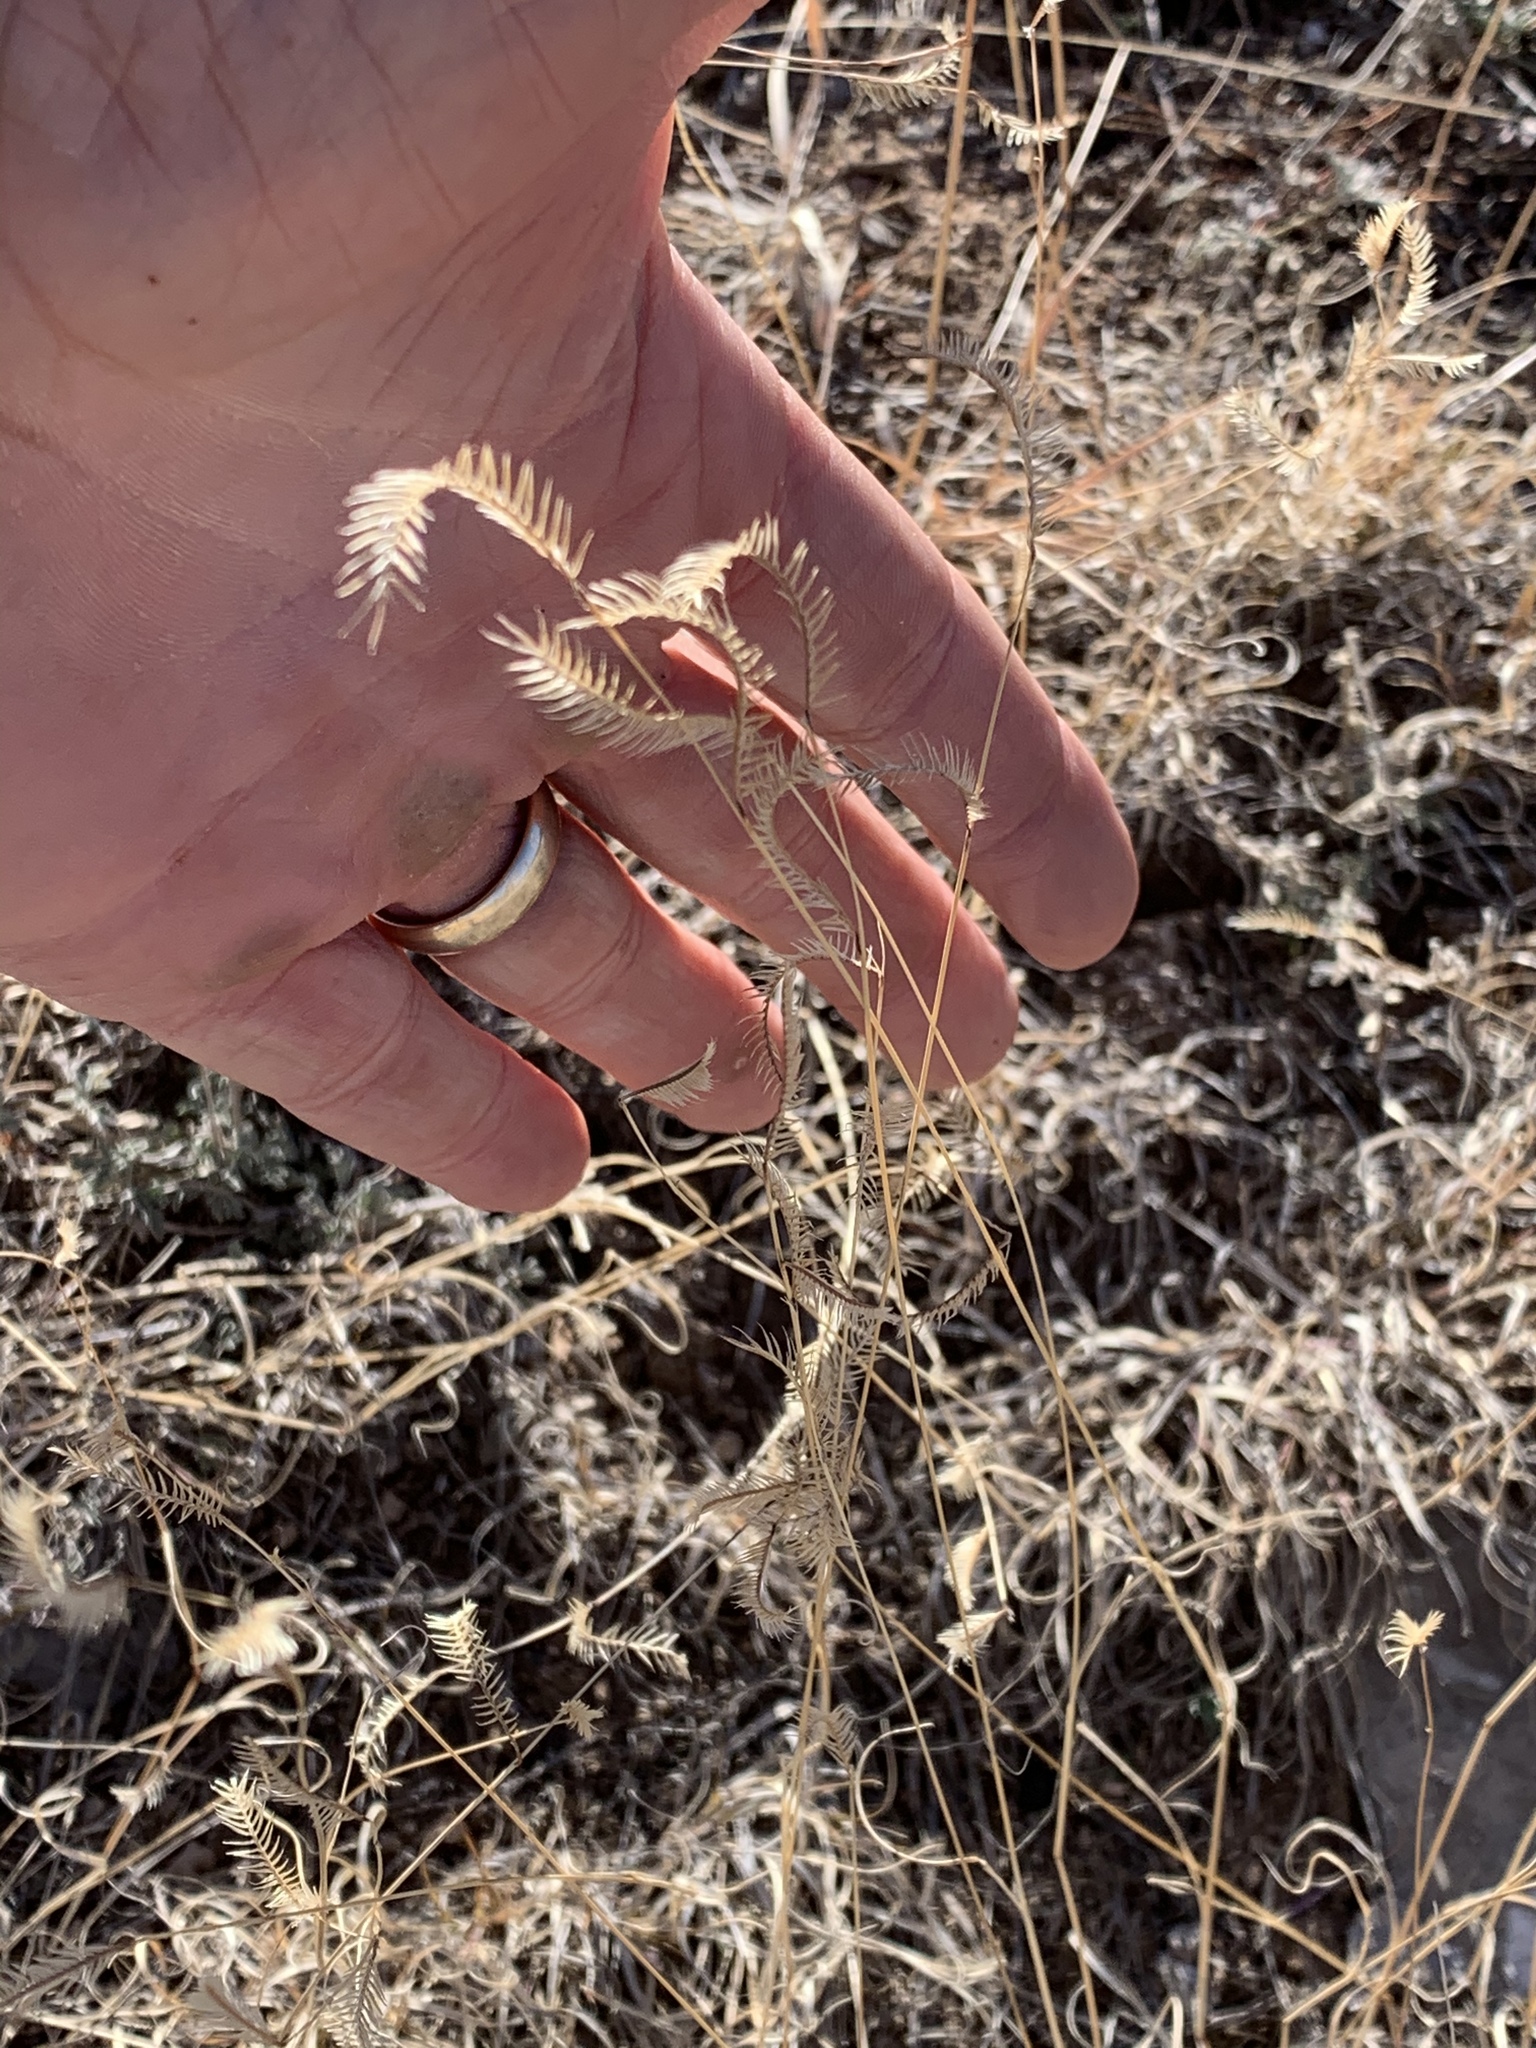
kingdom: Plantae
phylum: Tracheophyta
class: Liliopsida
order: Poales
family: Poaceae
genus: Bouteloua
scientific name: Bouteloua gracilis
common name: Blue grama
